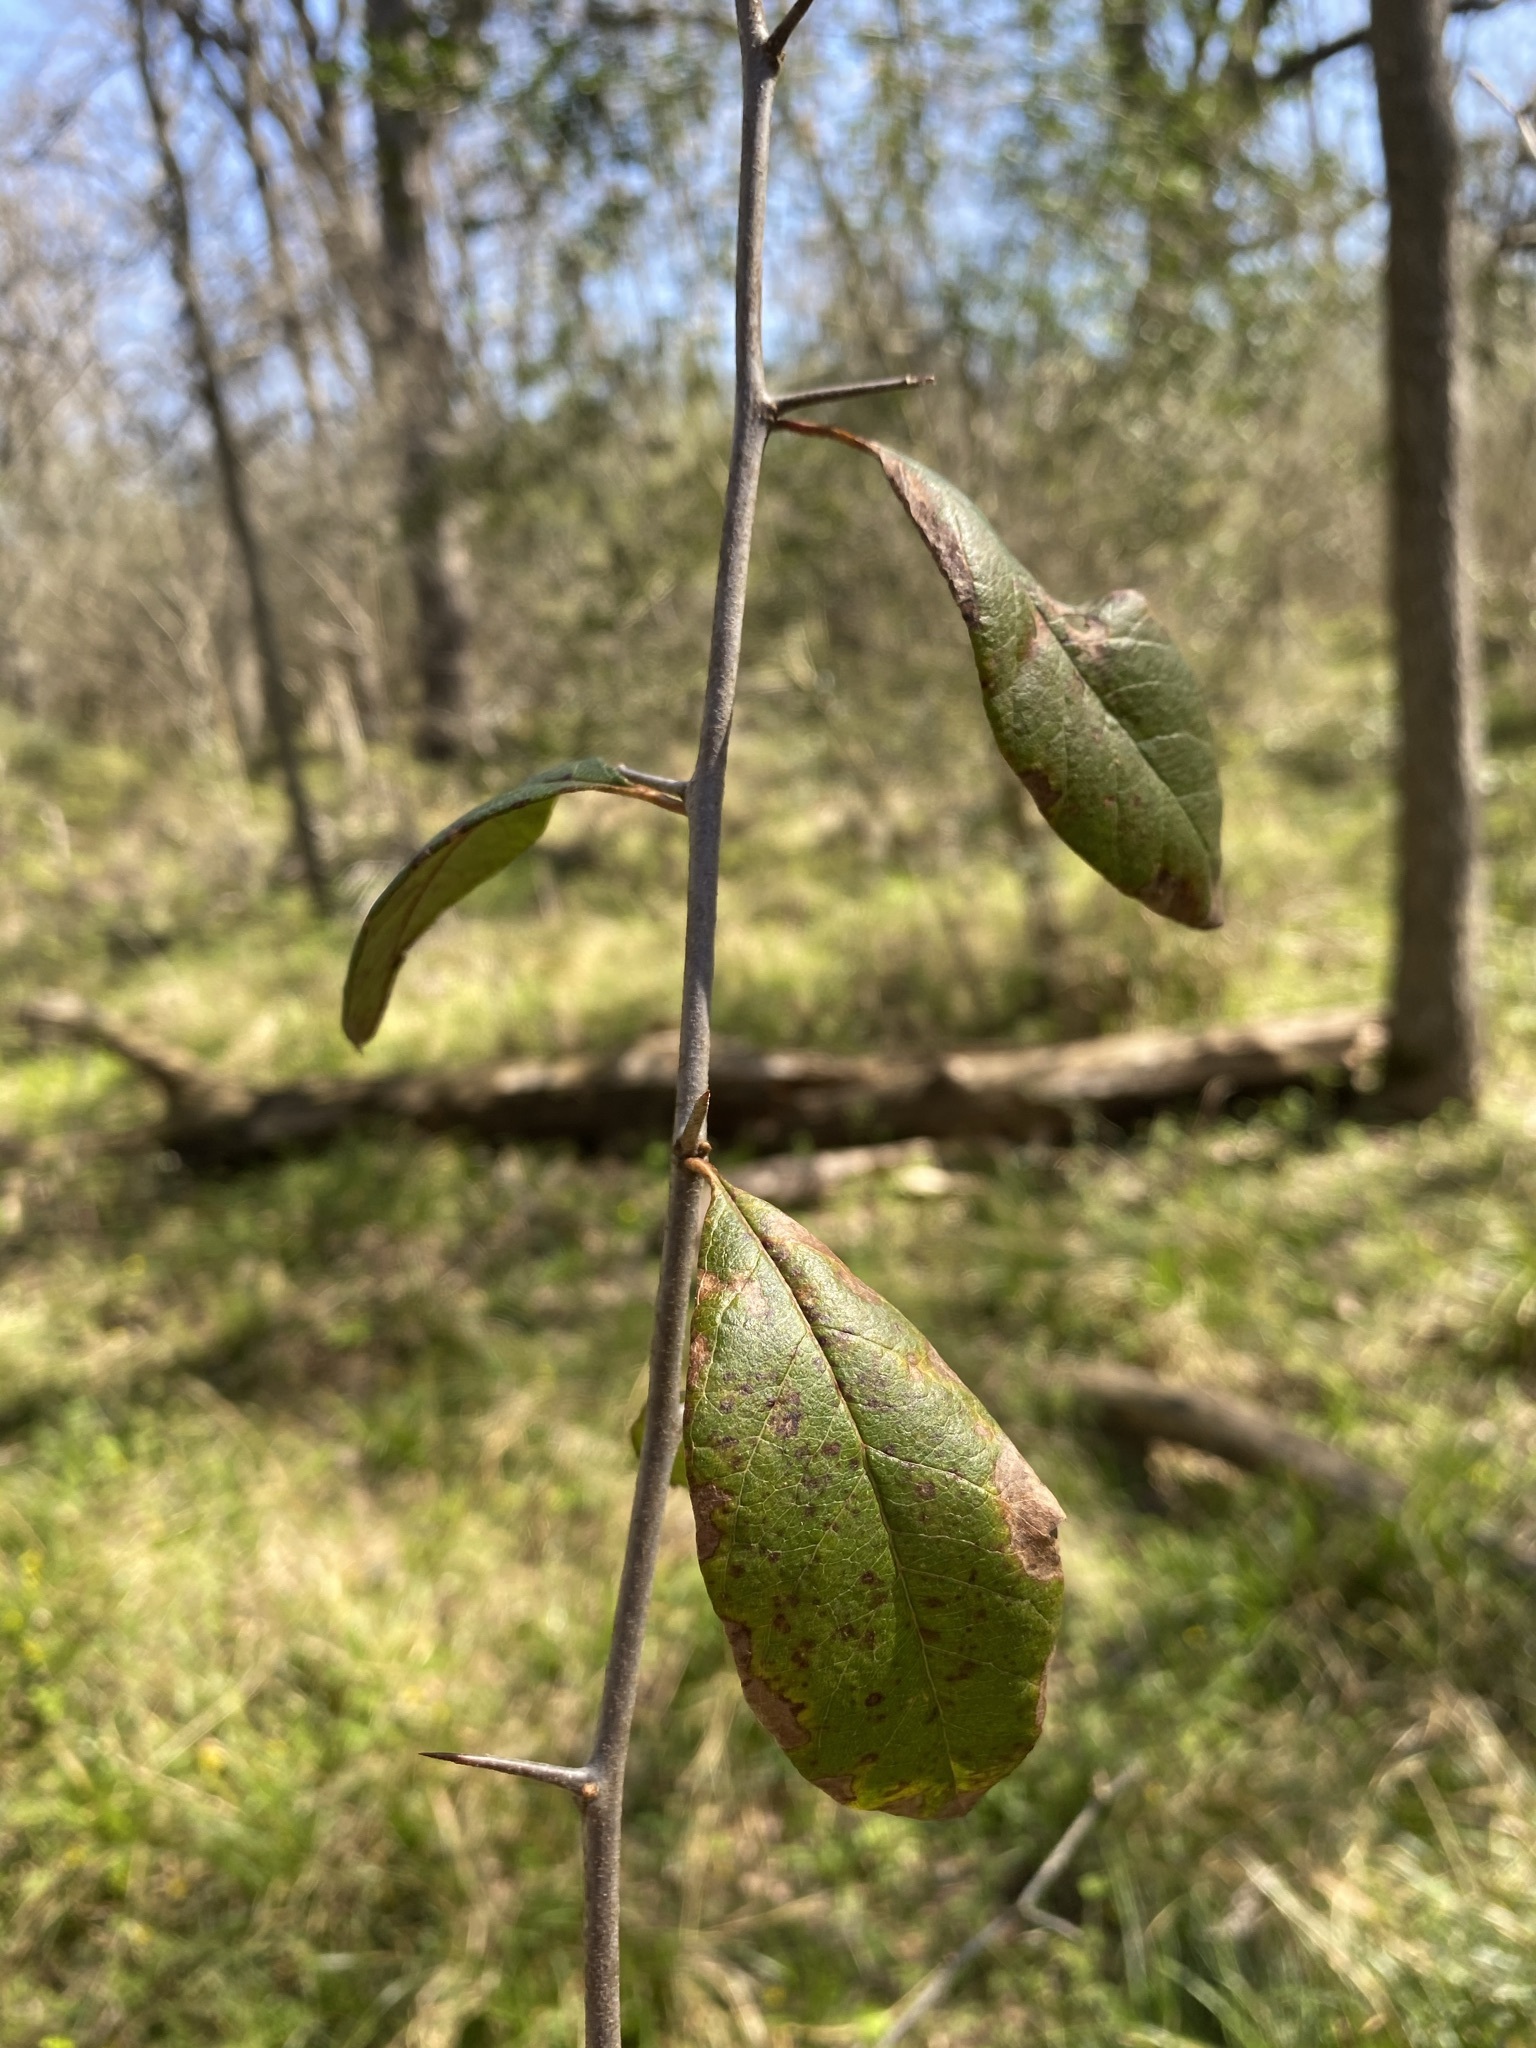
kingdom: Plantae
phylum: Tracheophyta
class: Magnoliopsida
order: Ericales
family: Sapotaceae
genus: Sideroxylon
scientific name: Sideroxylon lanuginosum
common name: Chittamwood
